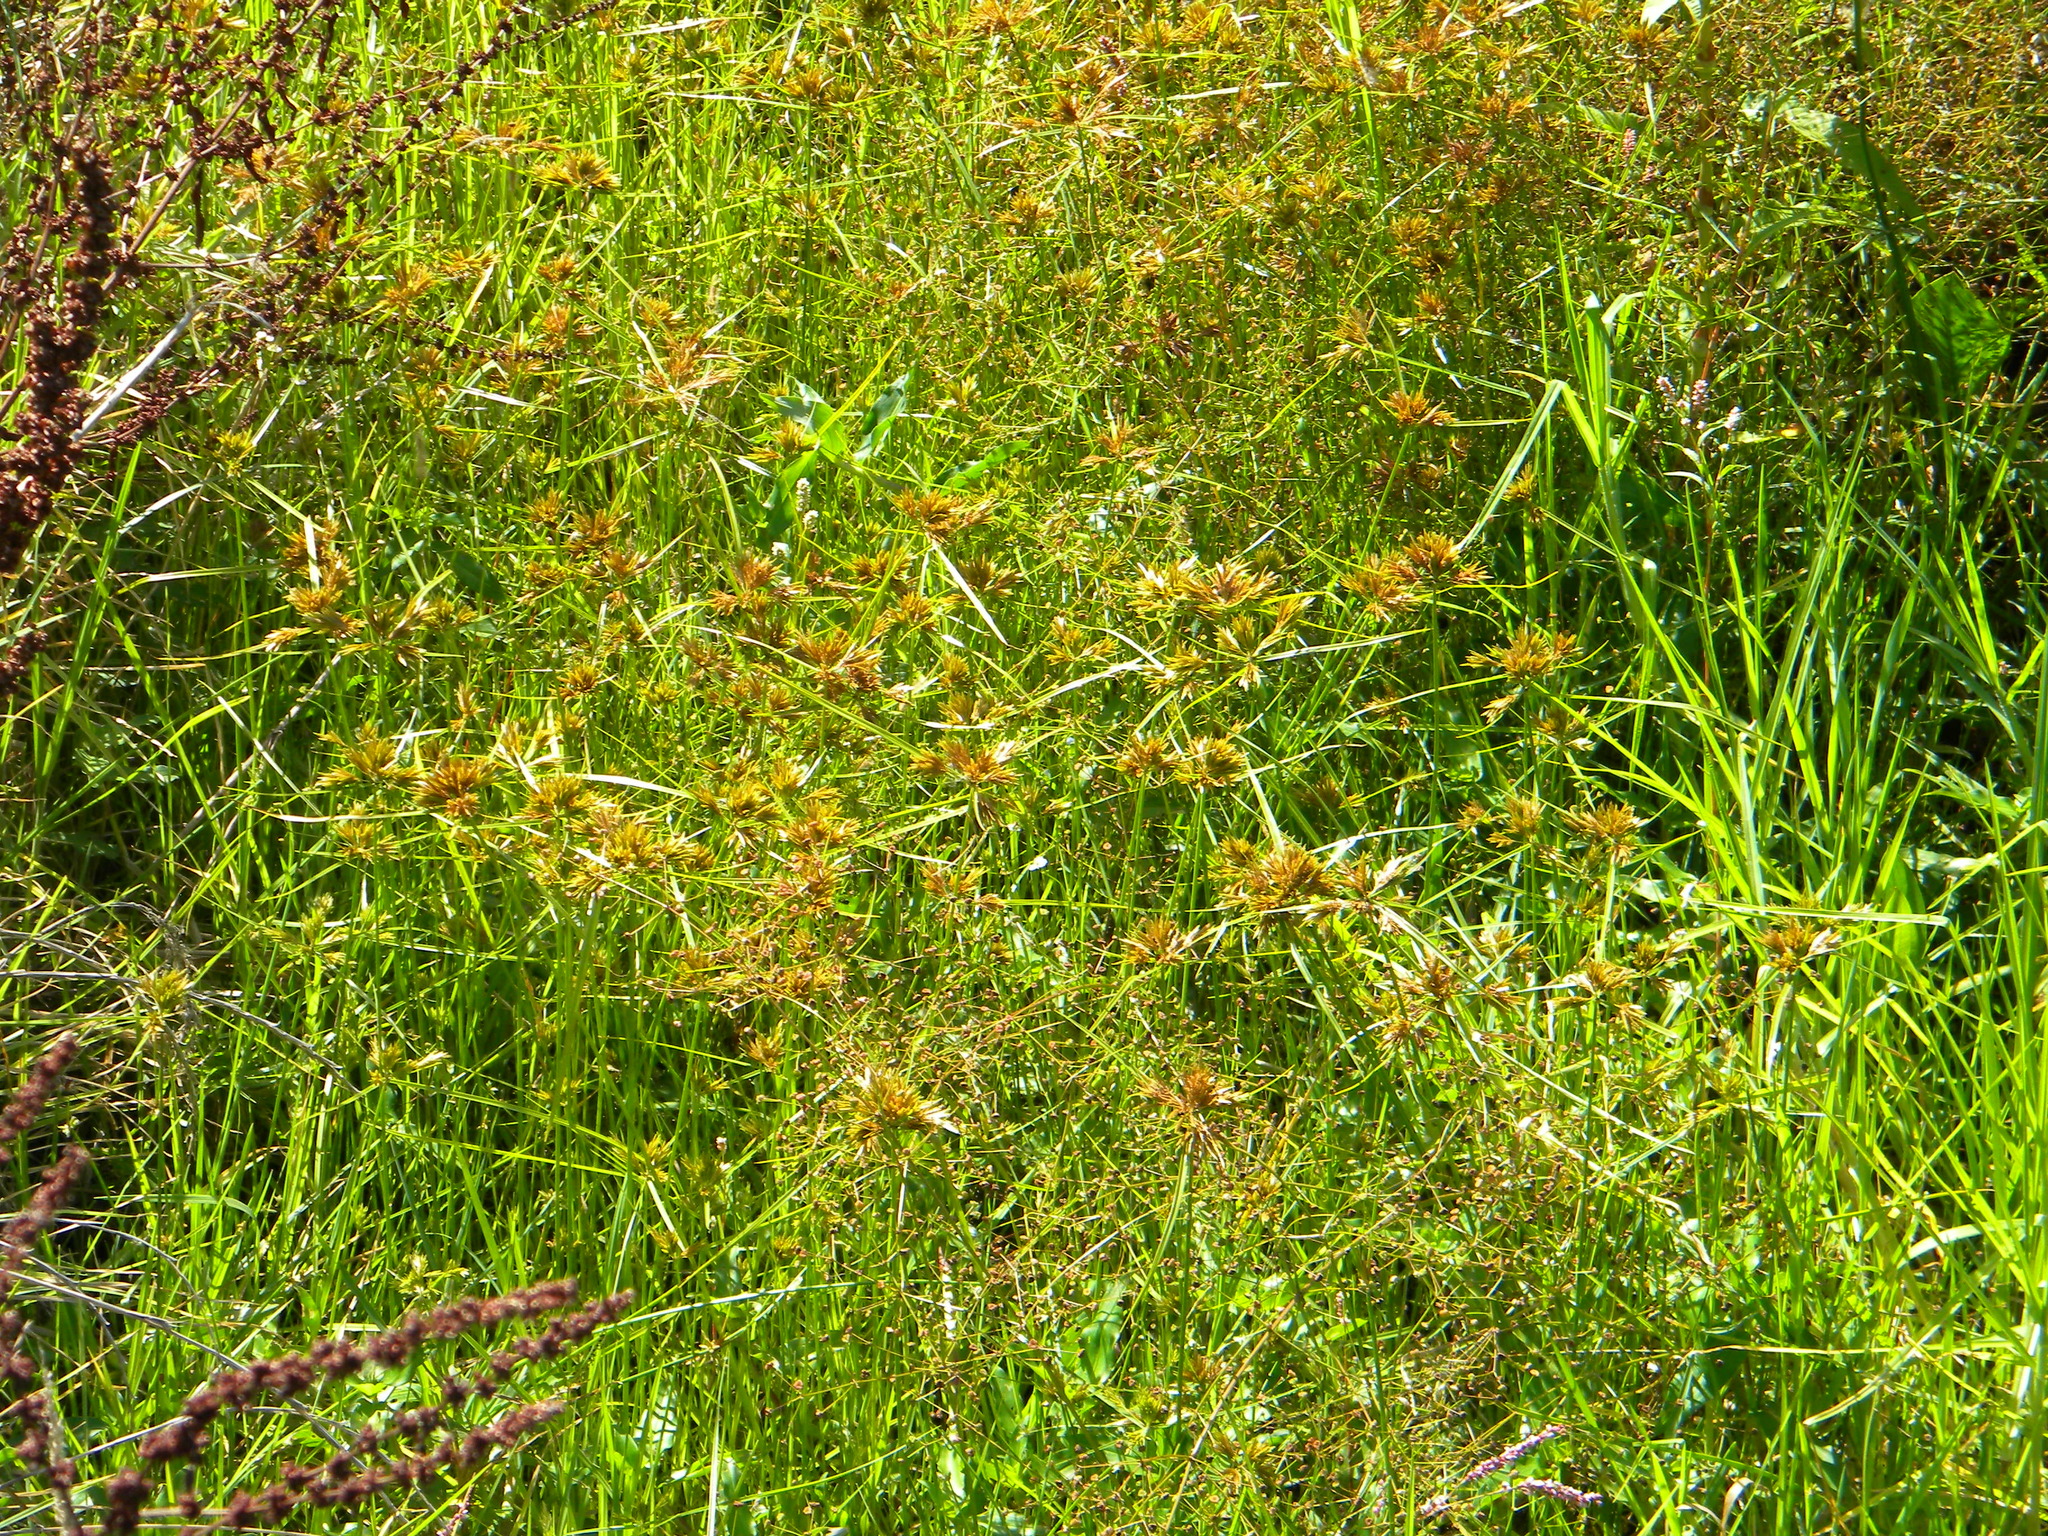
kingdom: Plantae
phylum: Tracheophyta
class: Liliopsida
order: Poales
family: Cyperaceae
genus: Cyperus
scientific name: Cyperus polystachyos
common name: Bunchy flat sedge
